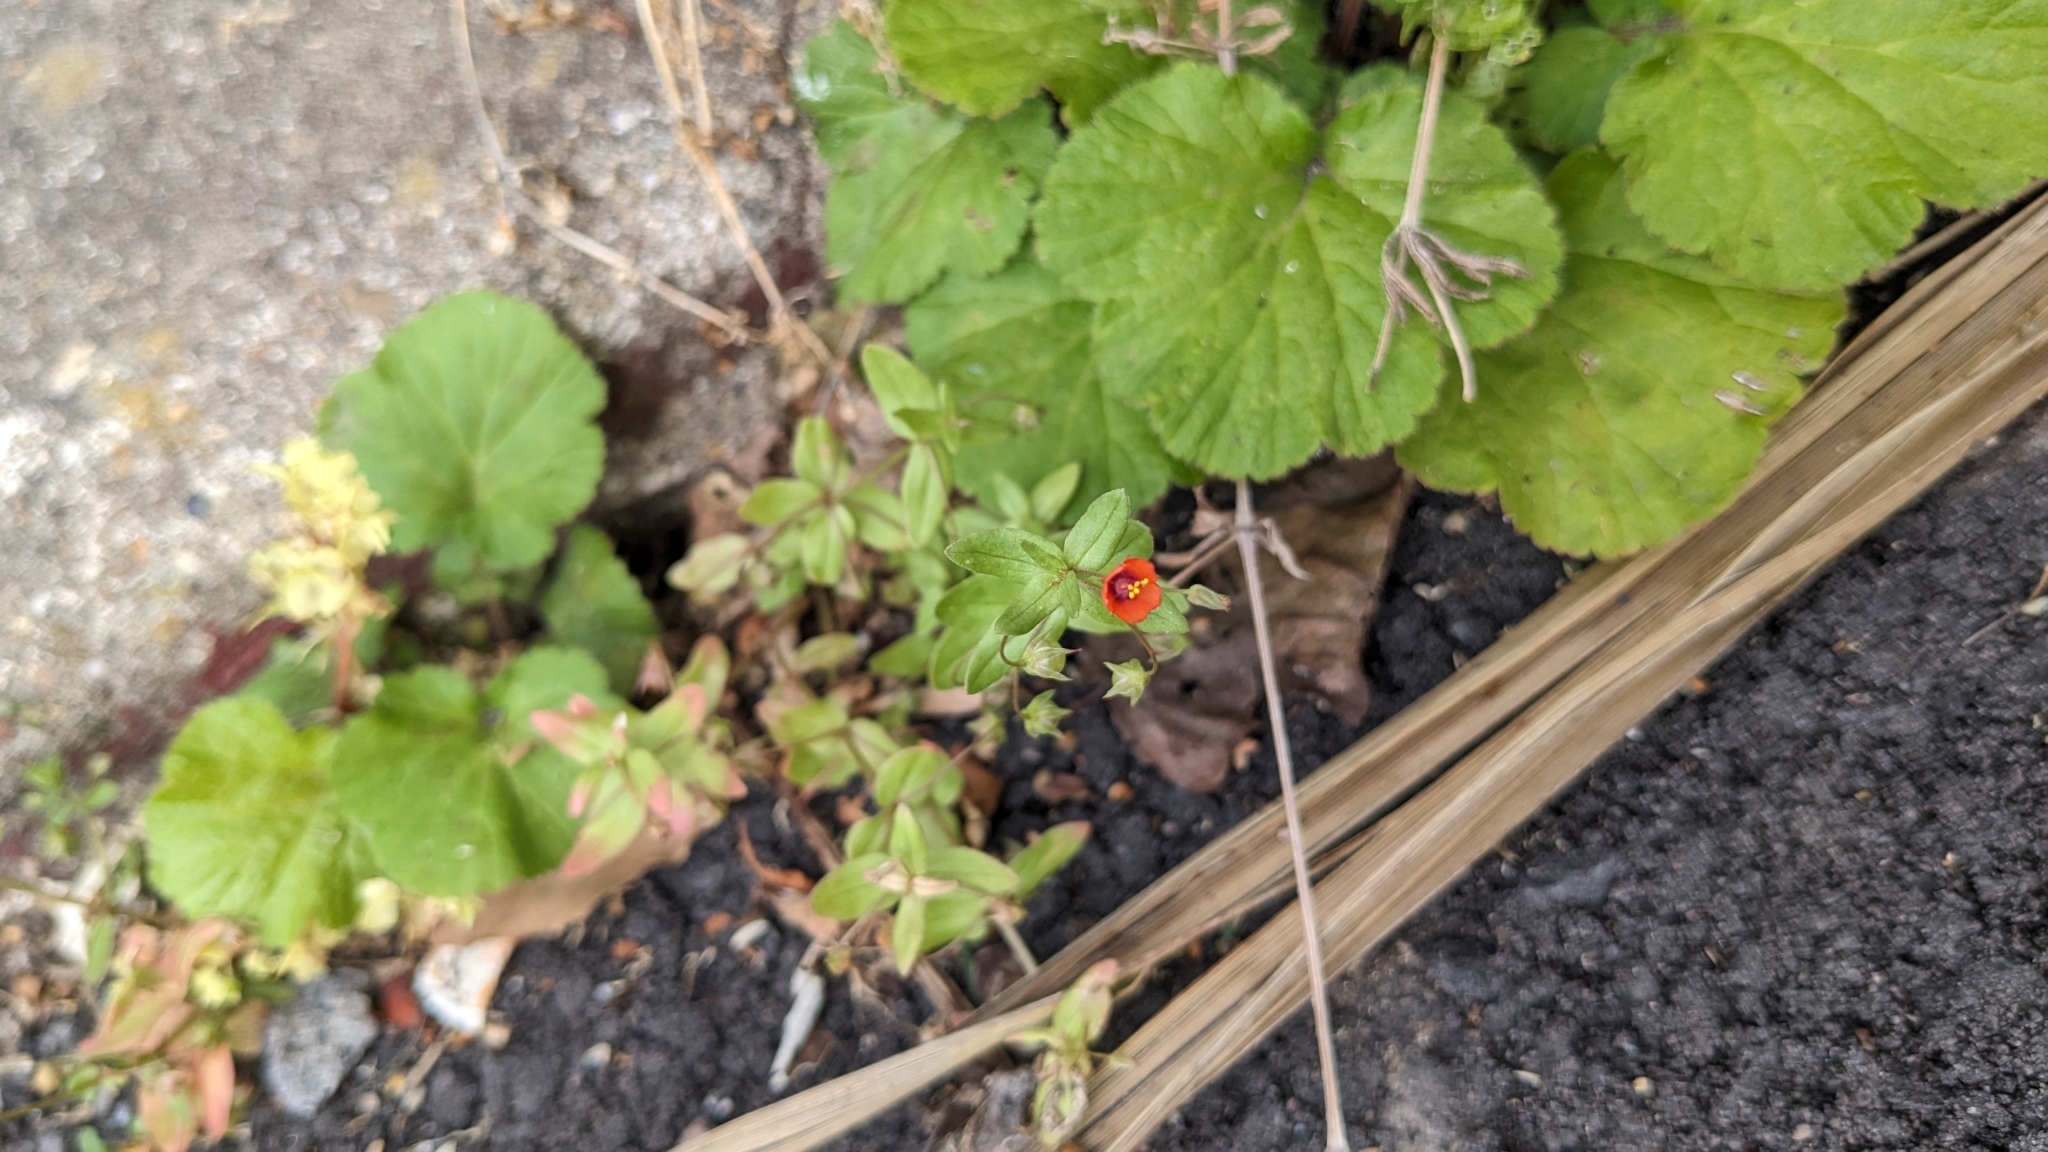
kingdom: Plantae
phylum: Tracheophyta
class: Magnoliopsida
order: Ericales
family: Primulaceae
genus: Lysimachia
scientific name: Lysimachia arvensis
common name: Scarlet pimpernel
